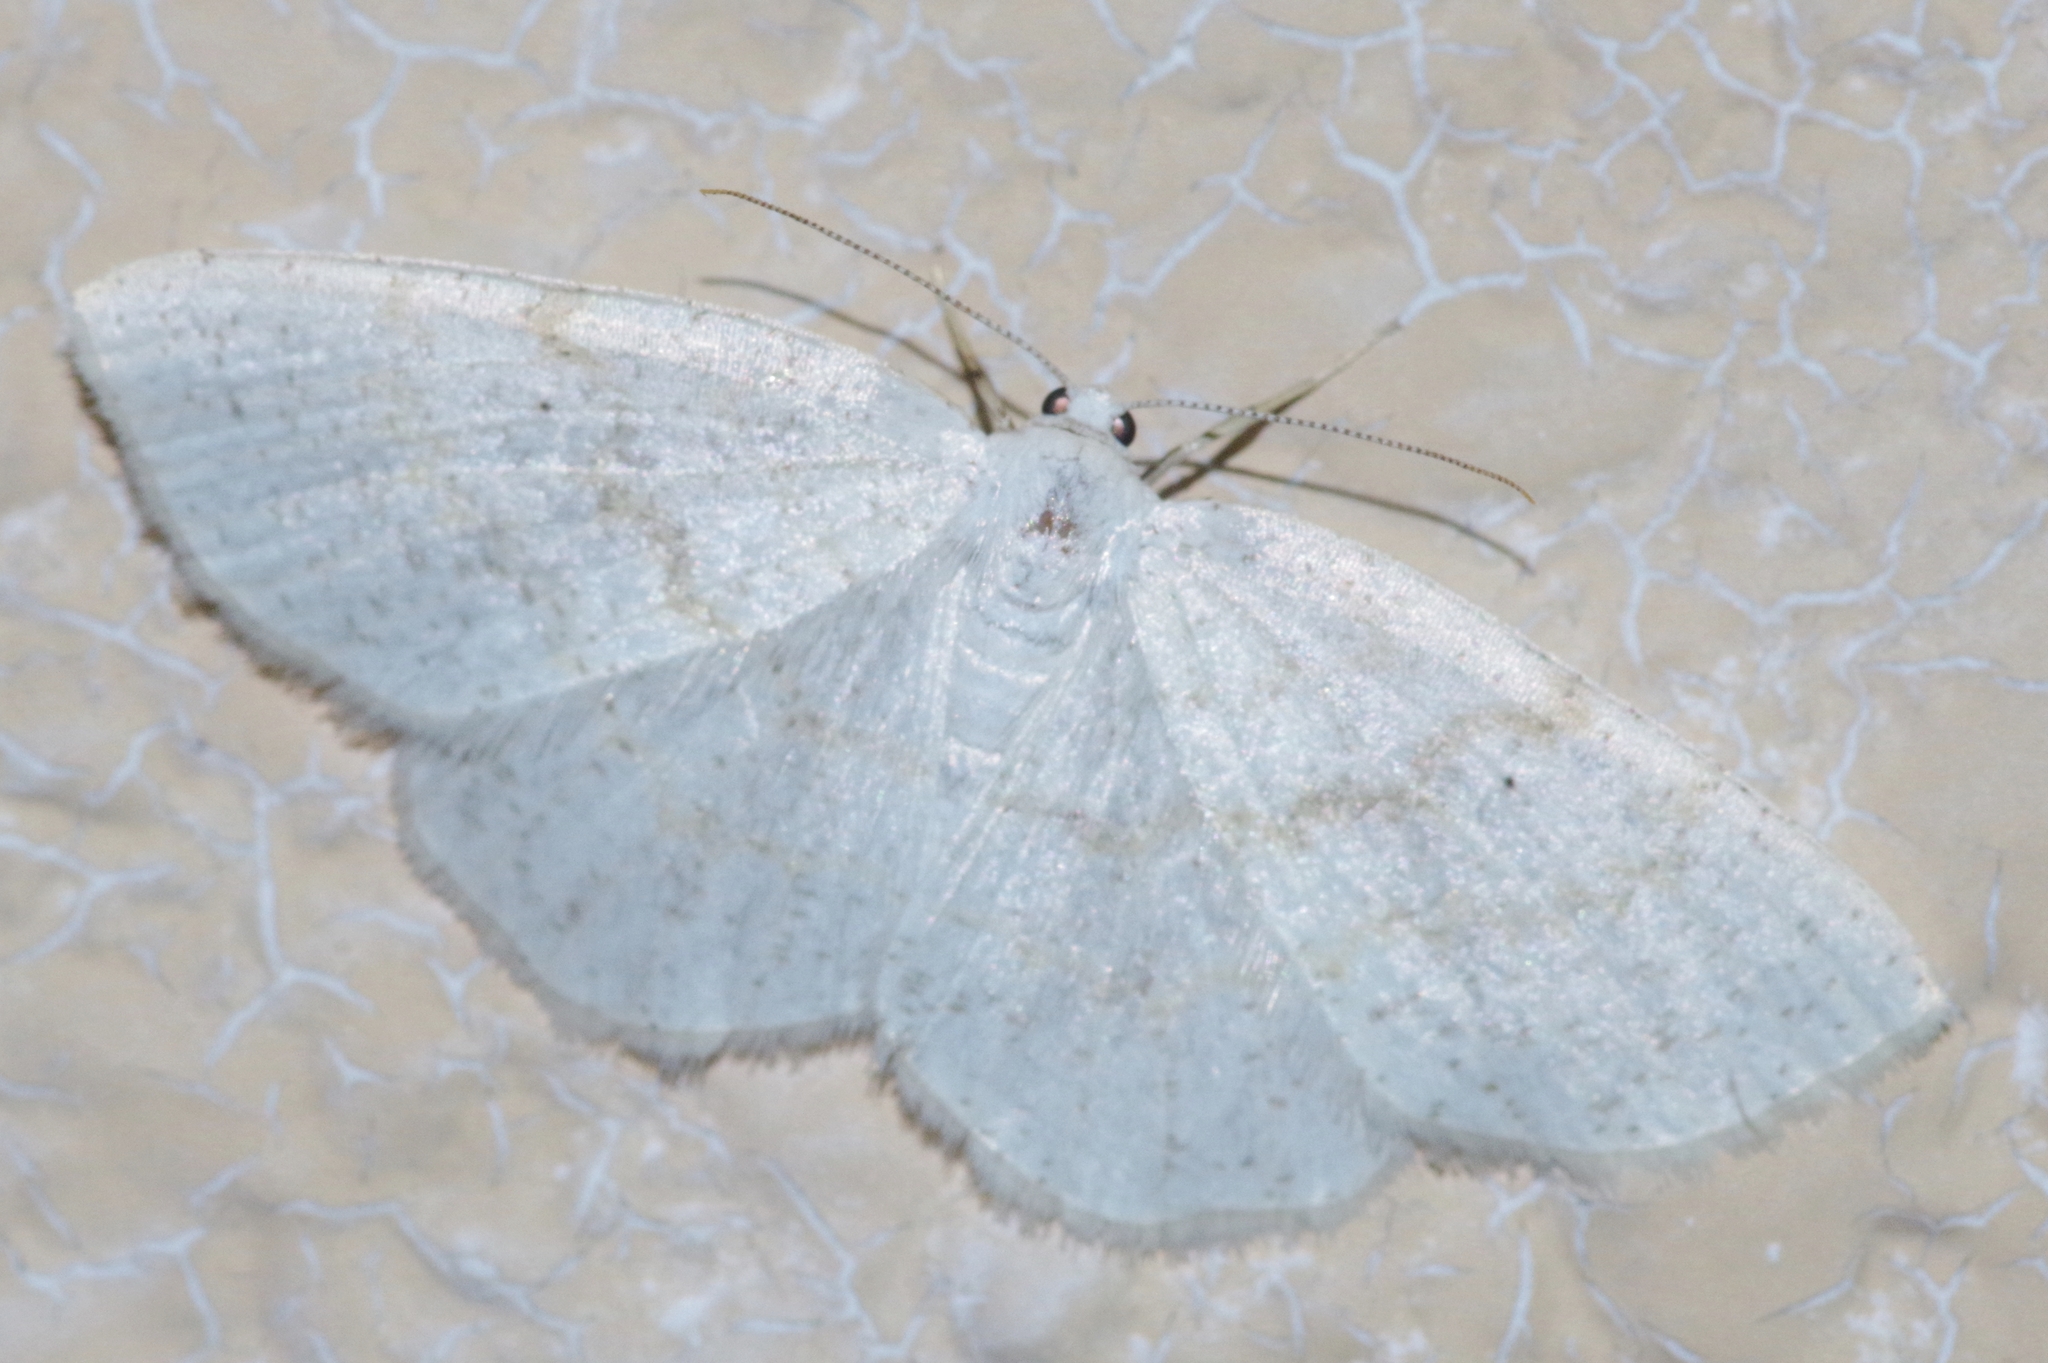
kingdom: Animalia
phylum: Arthropoda
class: Insecta
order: Lepidoptera
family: Geometridae
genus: Cabera
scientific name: Cabera purus
